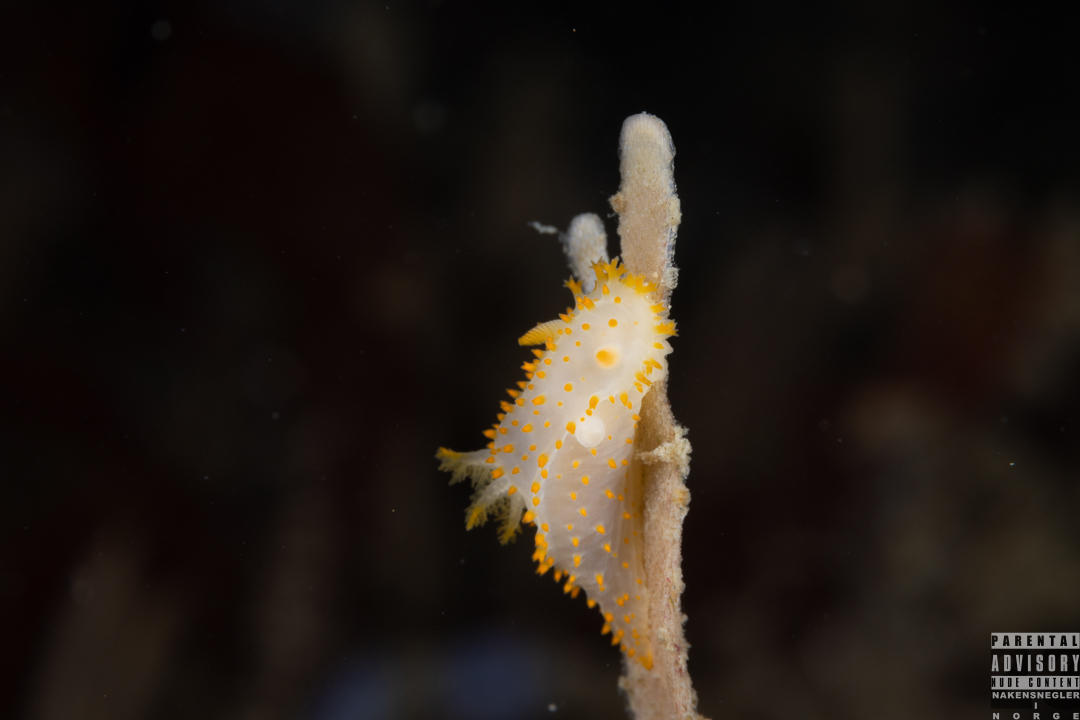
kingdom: Animalia
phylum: Mollusca
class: Gastropoda
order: Nudibranchia
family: Polyceridae
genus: Crimora
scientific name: Crimora papillata
